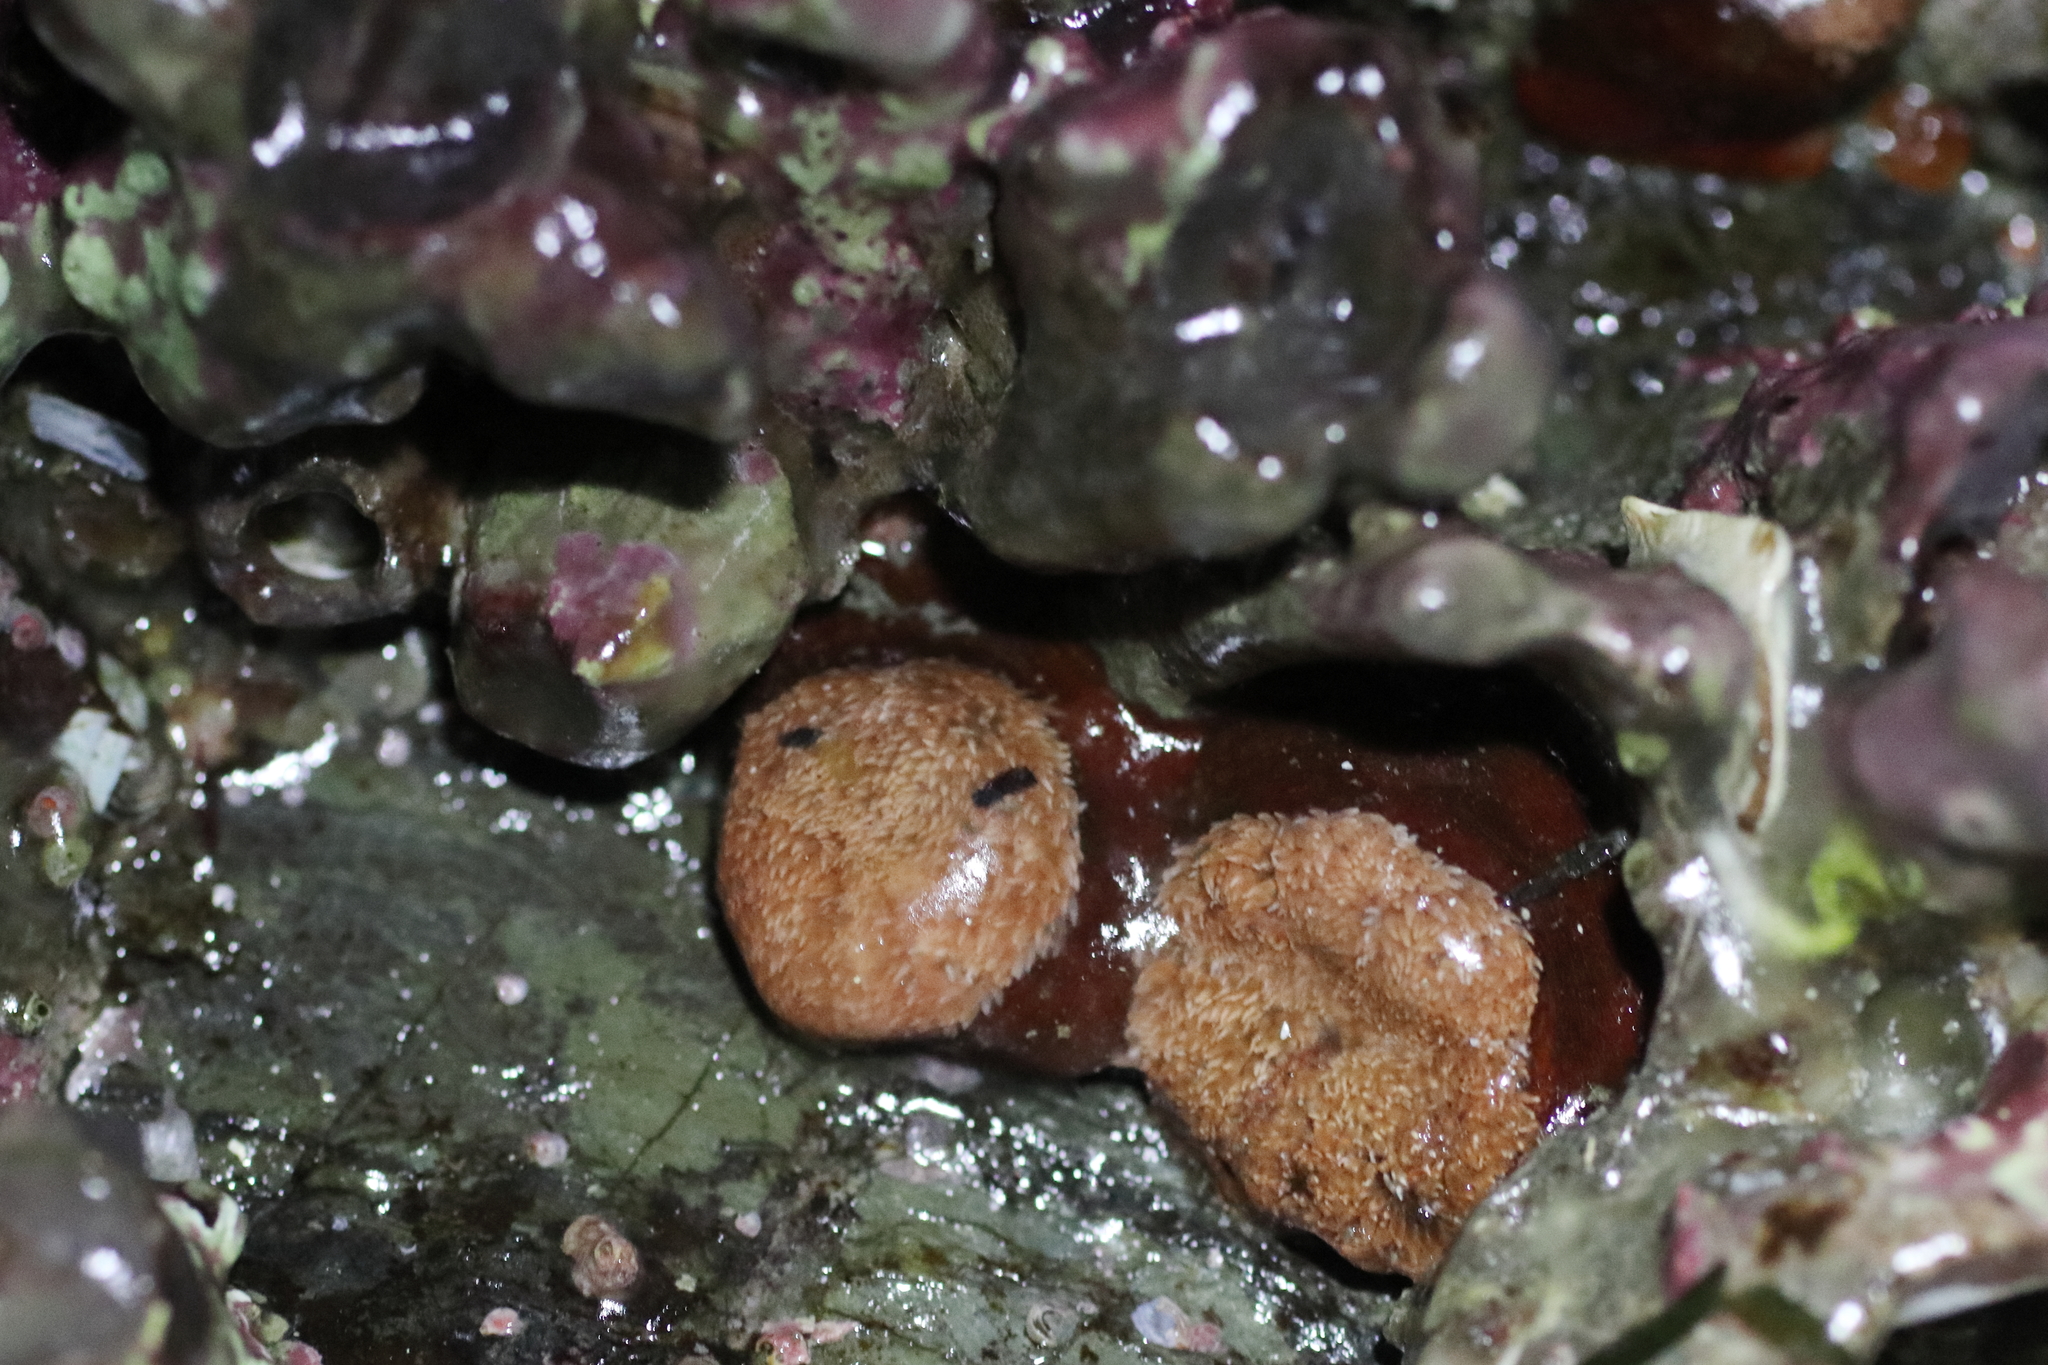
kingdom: Animalia
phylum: Cnidaria
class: Anthozoa
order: Actiniaria
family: Metridiidae
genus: Metridium
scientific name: Metridium senile
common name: Clonal plumose anemone
